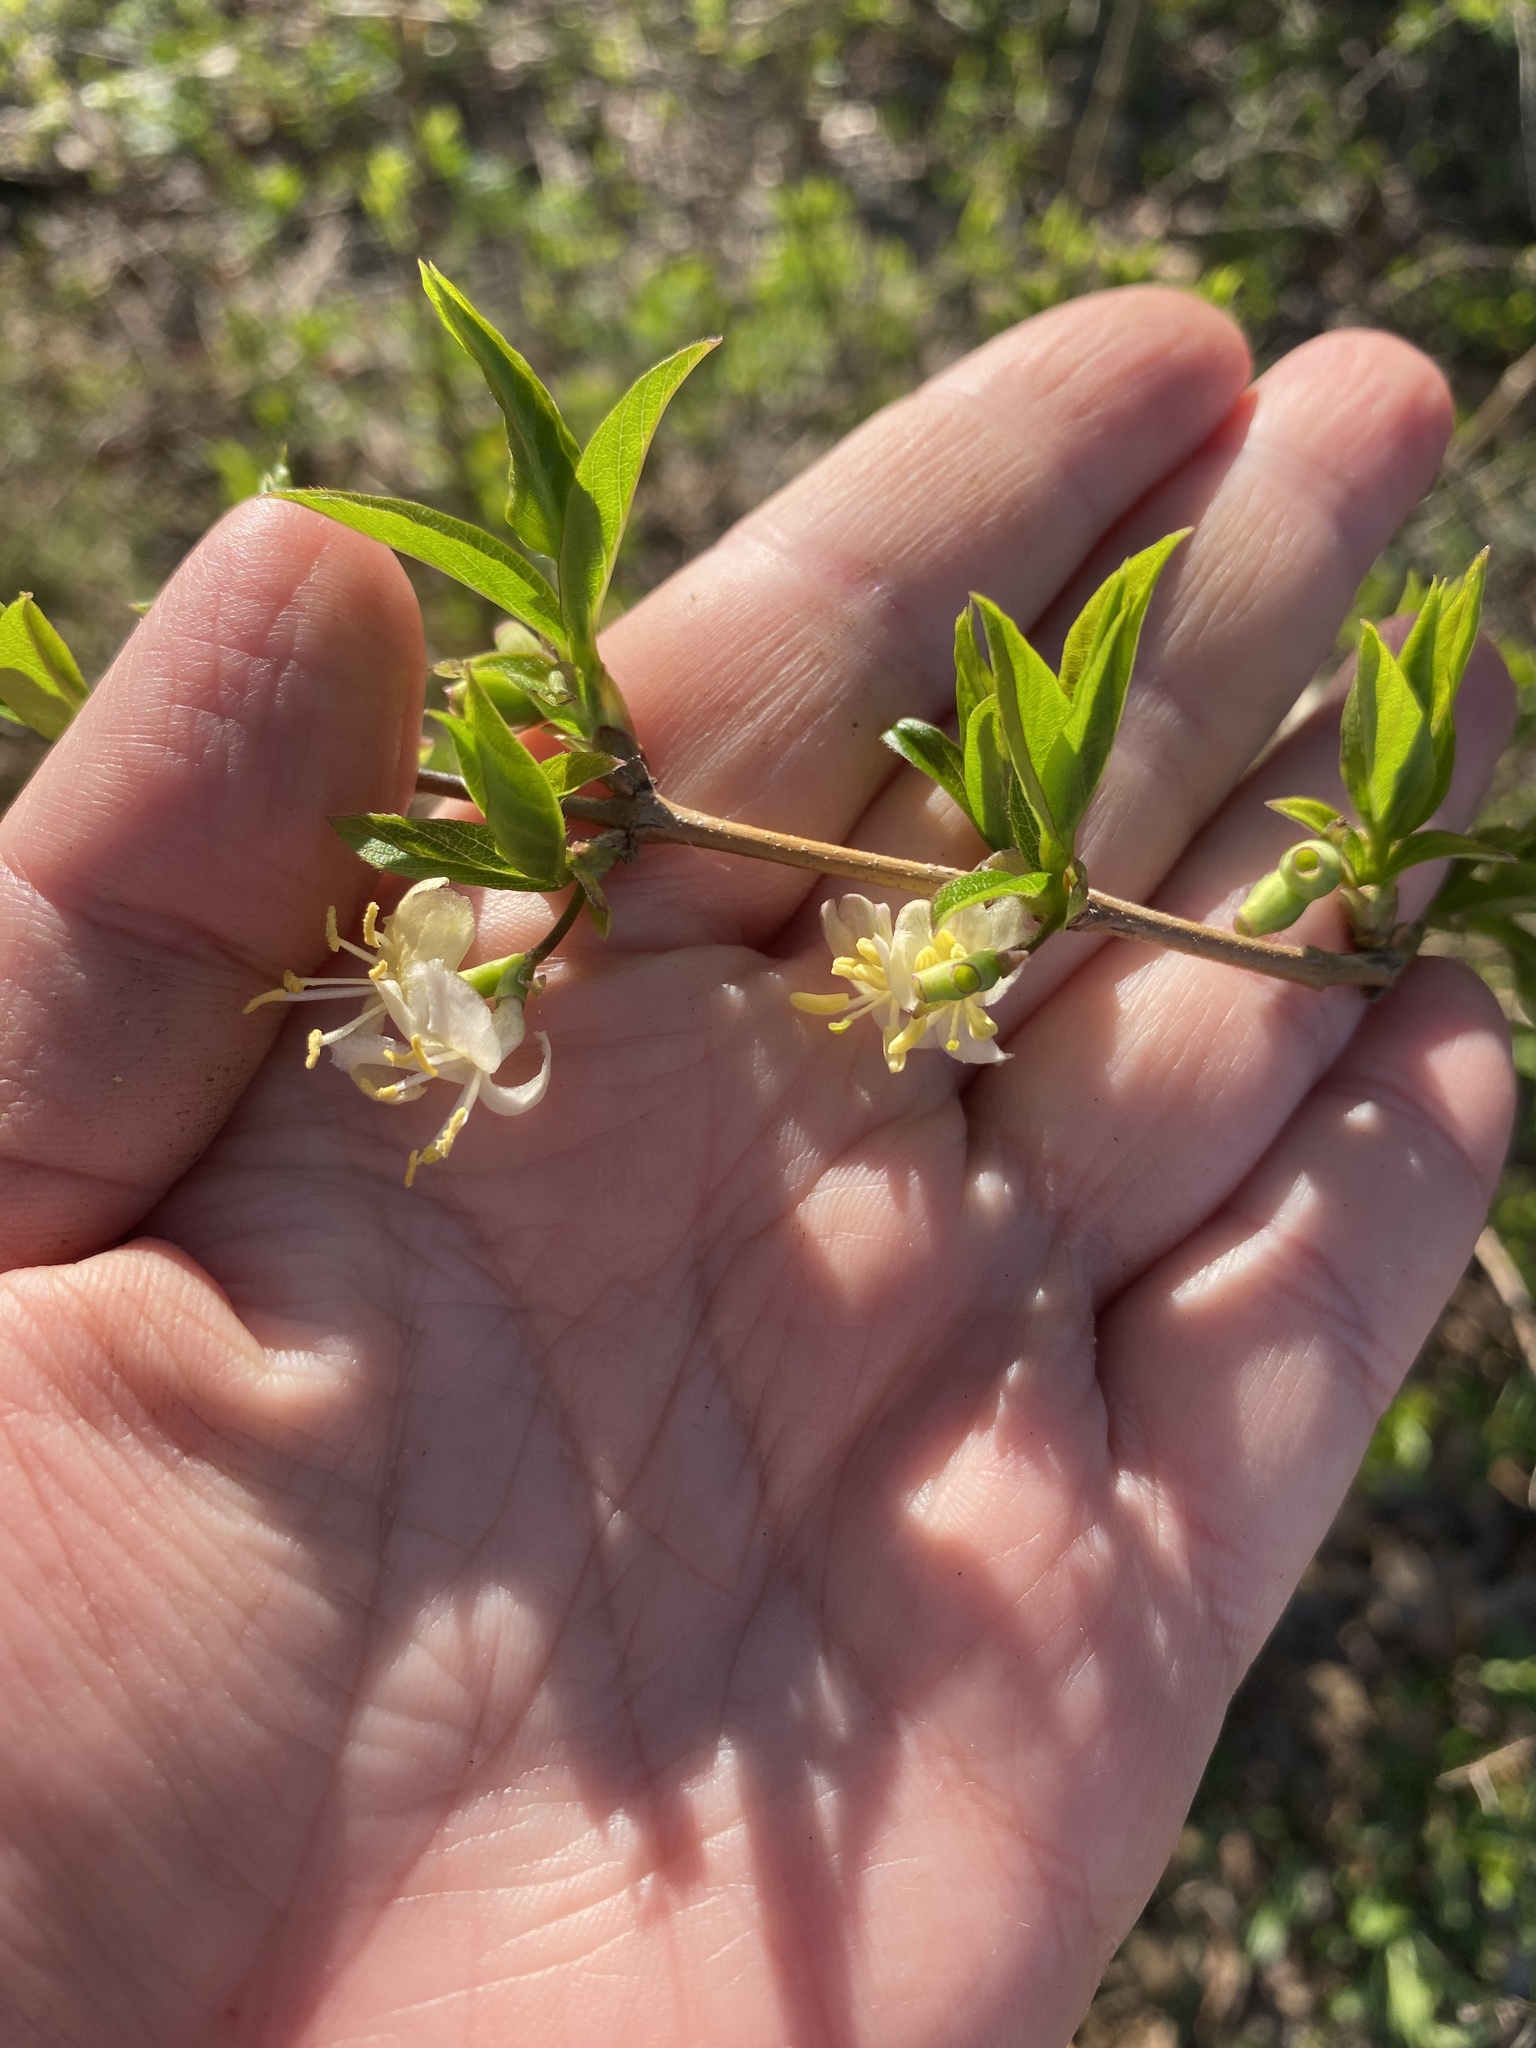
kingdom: Plantae
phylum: Tracheophyta
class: Magnoliopsida
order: Dipsacales
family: Caprifoliaceae
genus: Lonicera
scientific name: Lonicera fragrantissima
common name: Fragrant honeysuckle
